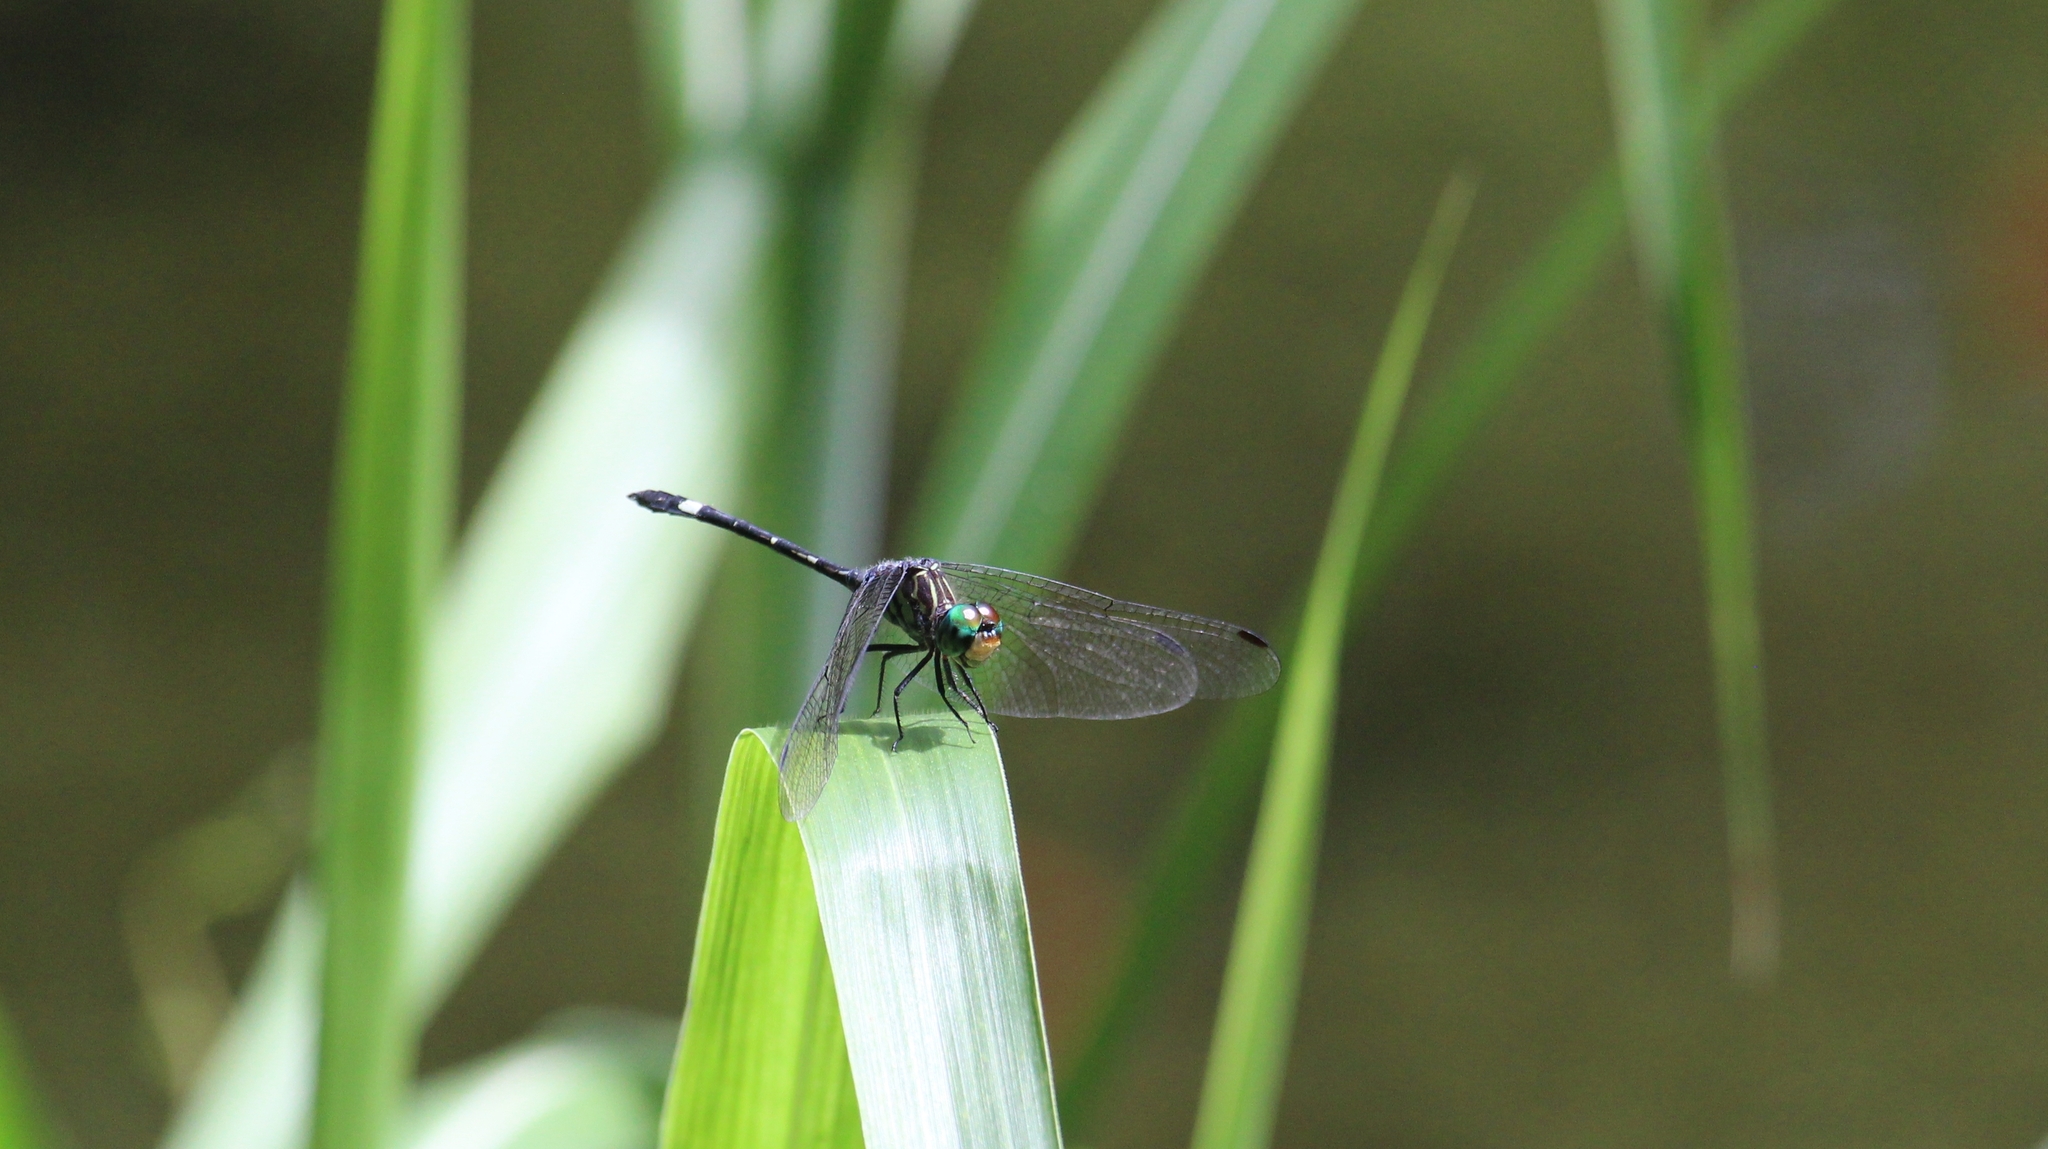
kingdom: Animalia
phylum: Arthropoda
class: Insecta
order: Odonata
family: Libellulidae
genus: Micrathyria
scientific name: Micrathyria didyma
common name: Three-striped dasher
